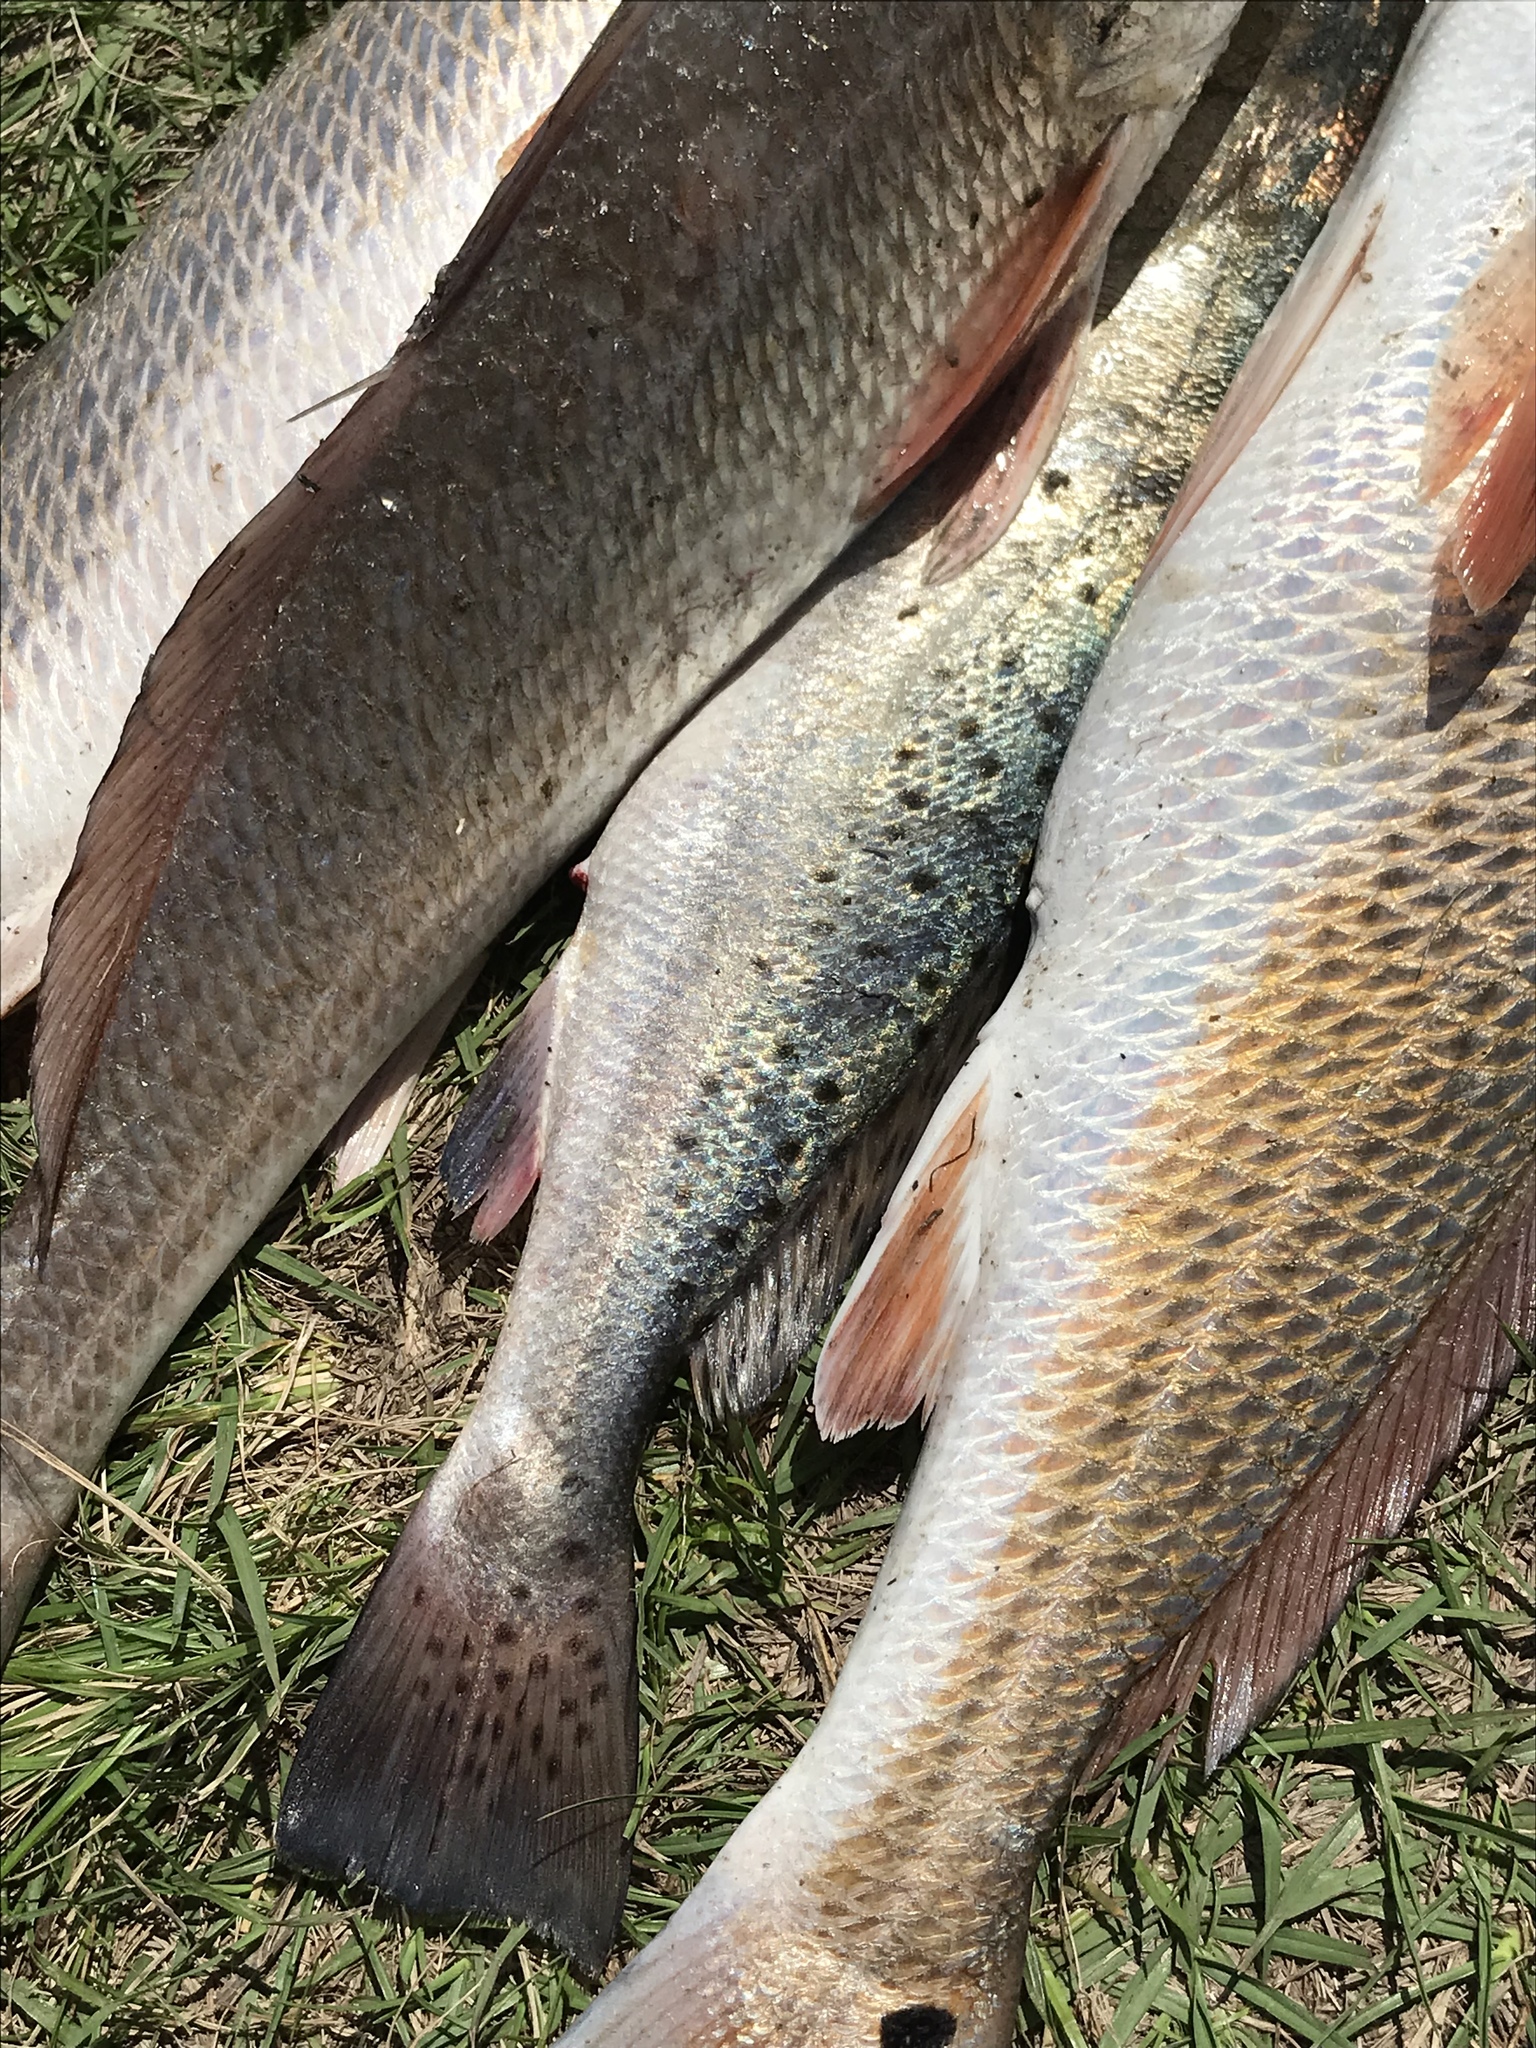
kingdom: Animalia
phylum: Chordata
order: Perciformes
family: Sciaenidae
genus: Cynoscion
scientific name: Cynoscion nebulosus
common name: Spotted seatrout
